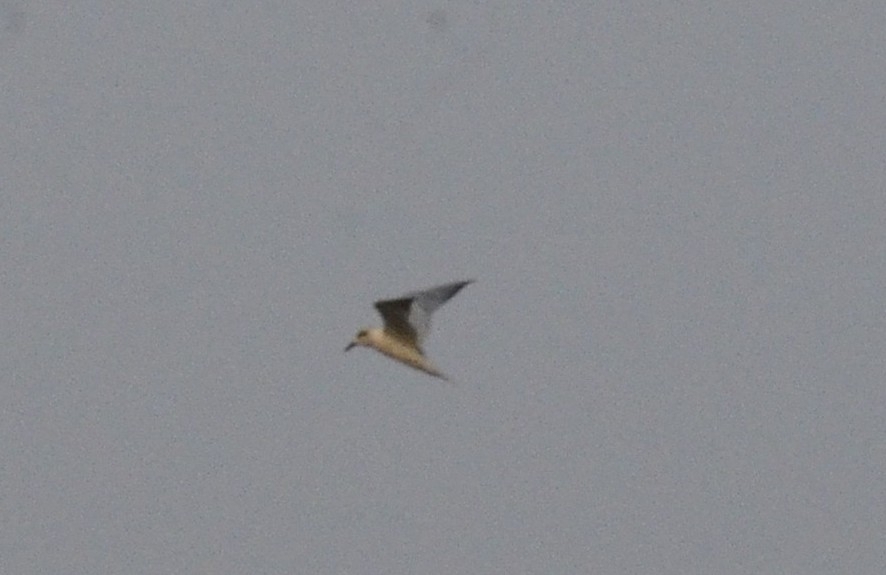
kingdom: Animalia
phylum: Chordata
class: Aves
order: Charadriiformes
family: Laridae
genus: Chlidonias
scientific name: Chlidonias hybrida
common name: Whiskered tern
